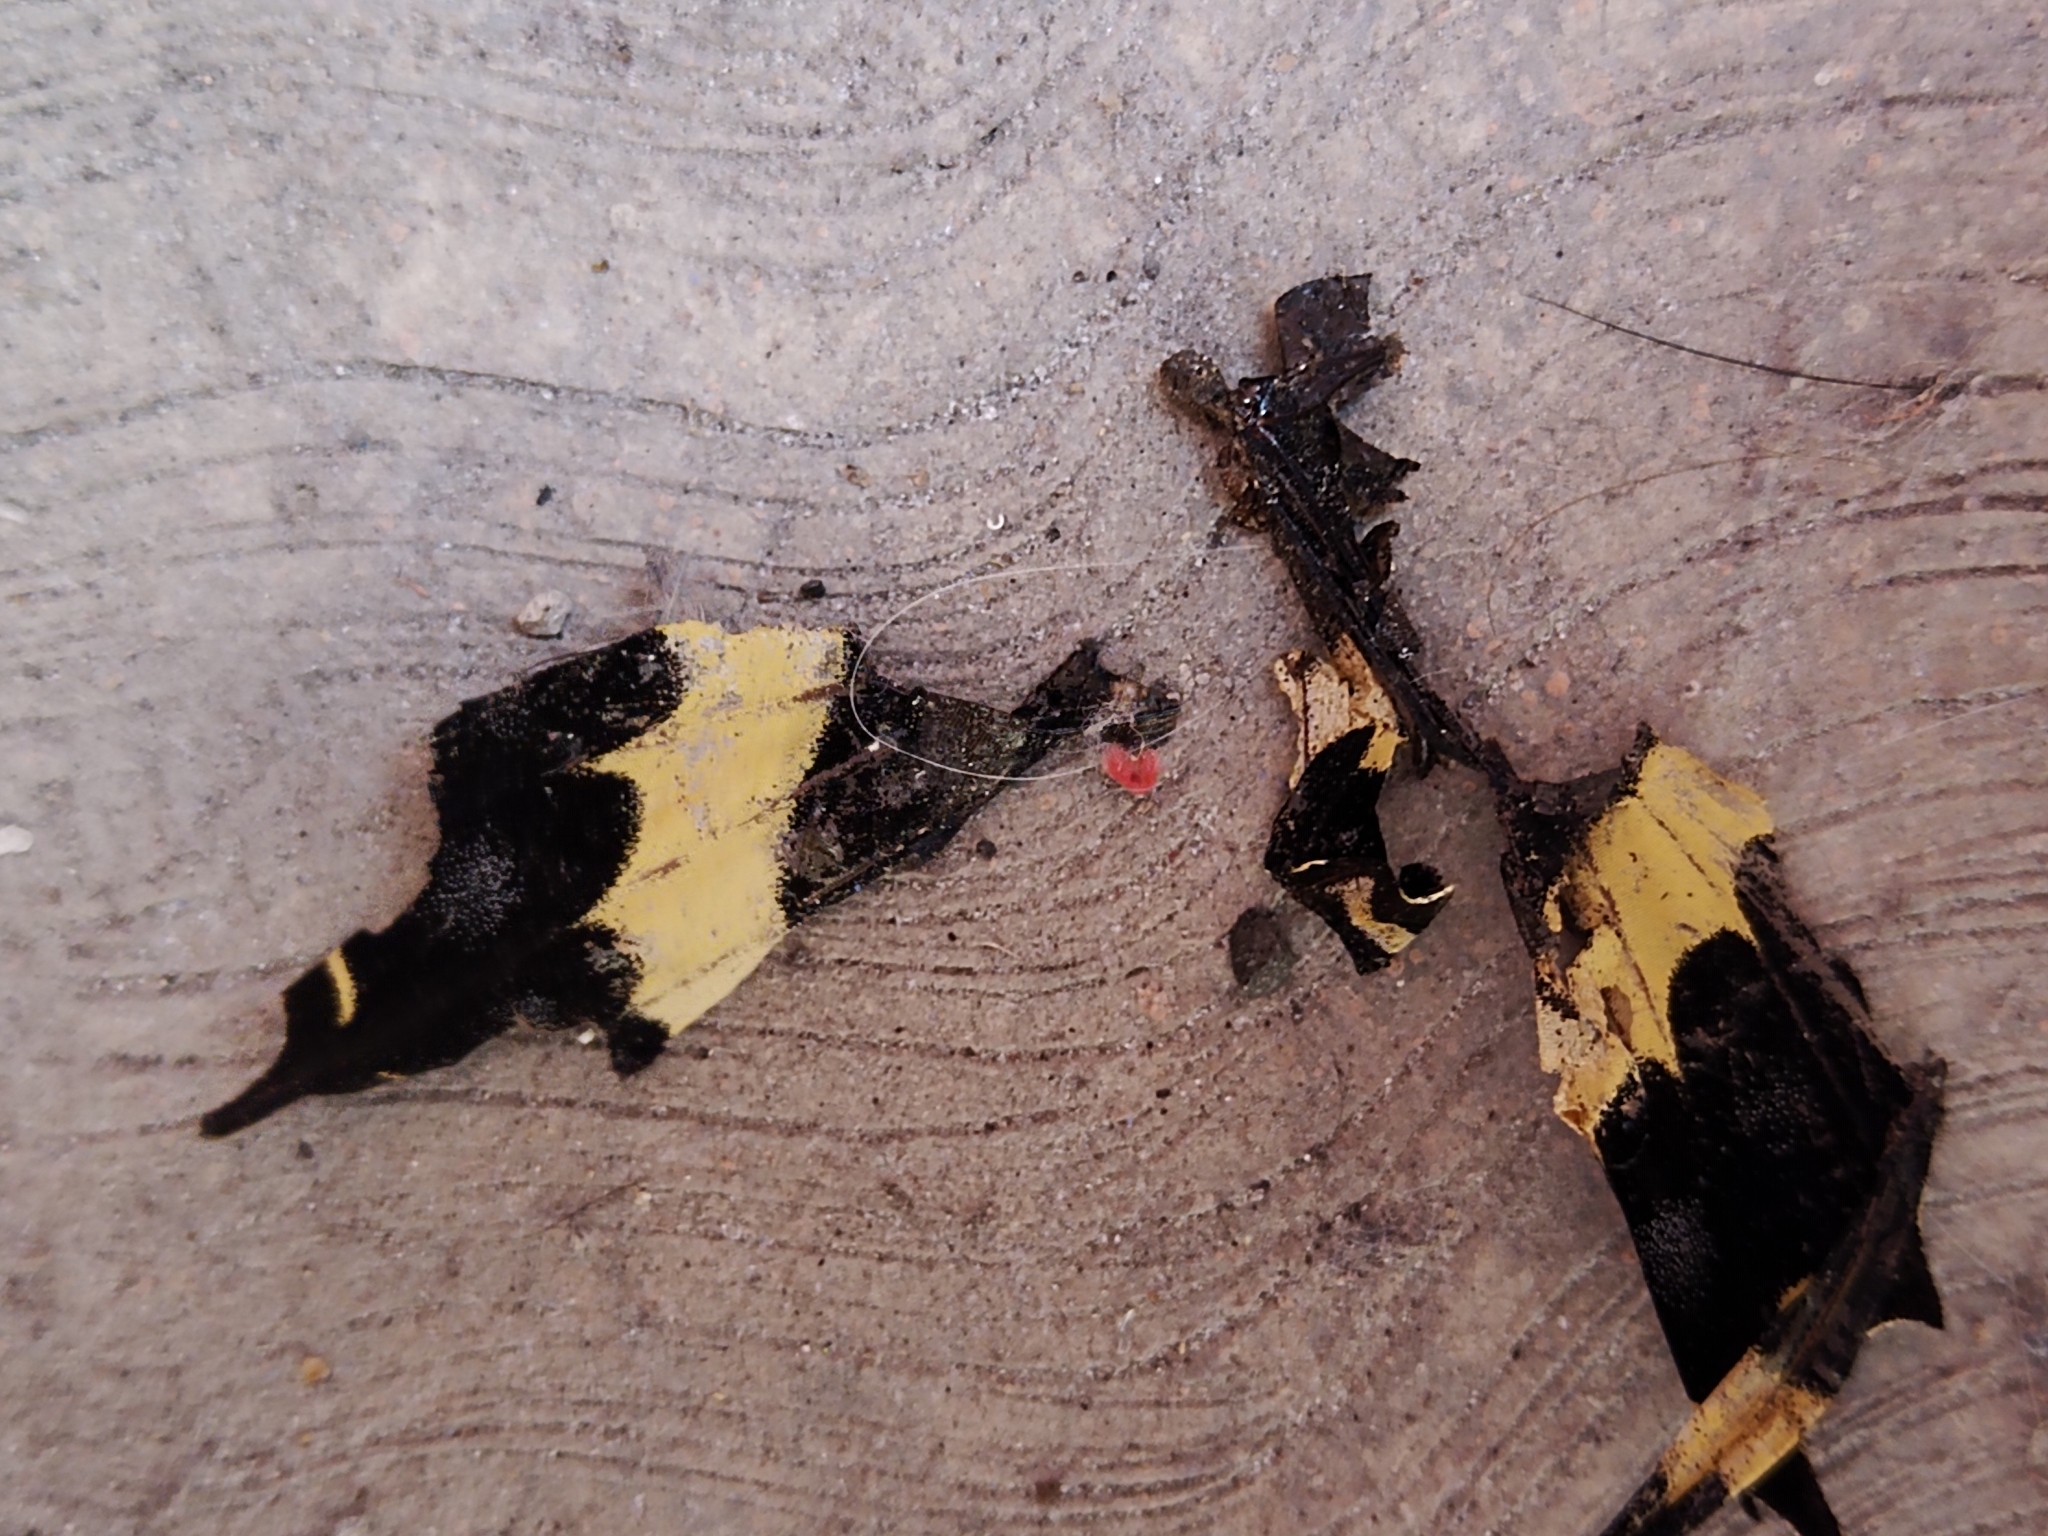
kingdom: Animalia
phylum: Arthropoda
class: Insecta
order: Lepidoptera
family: Papilionidae
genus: Papilio
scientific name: Papilio garamas
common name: Magnificent swallowtail
